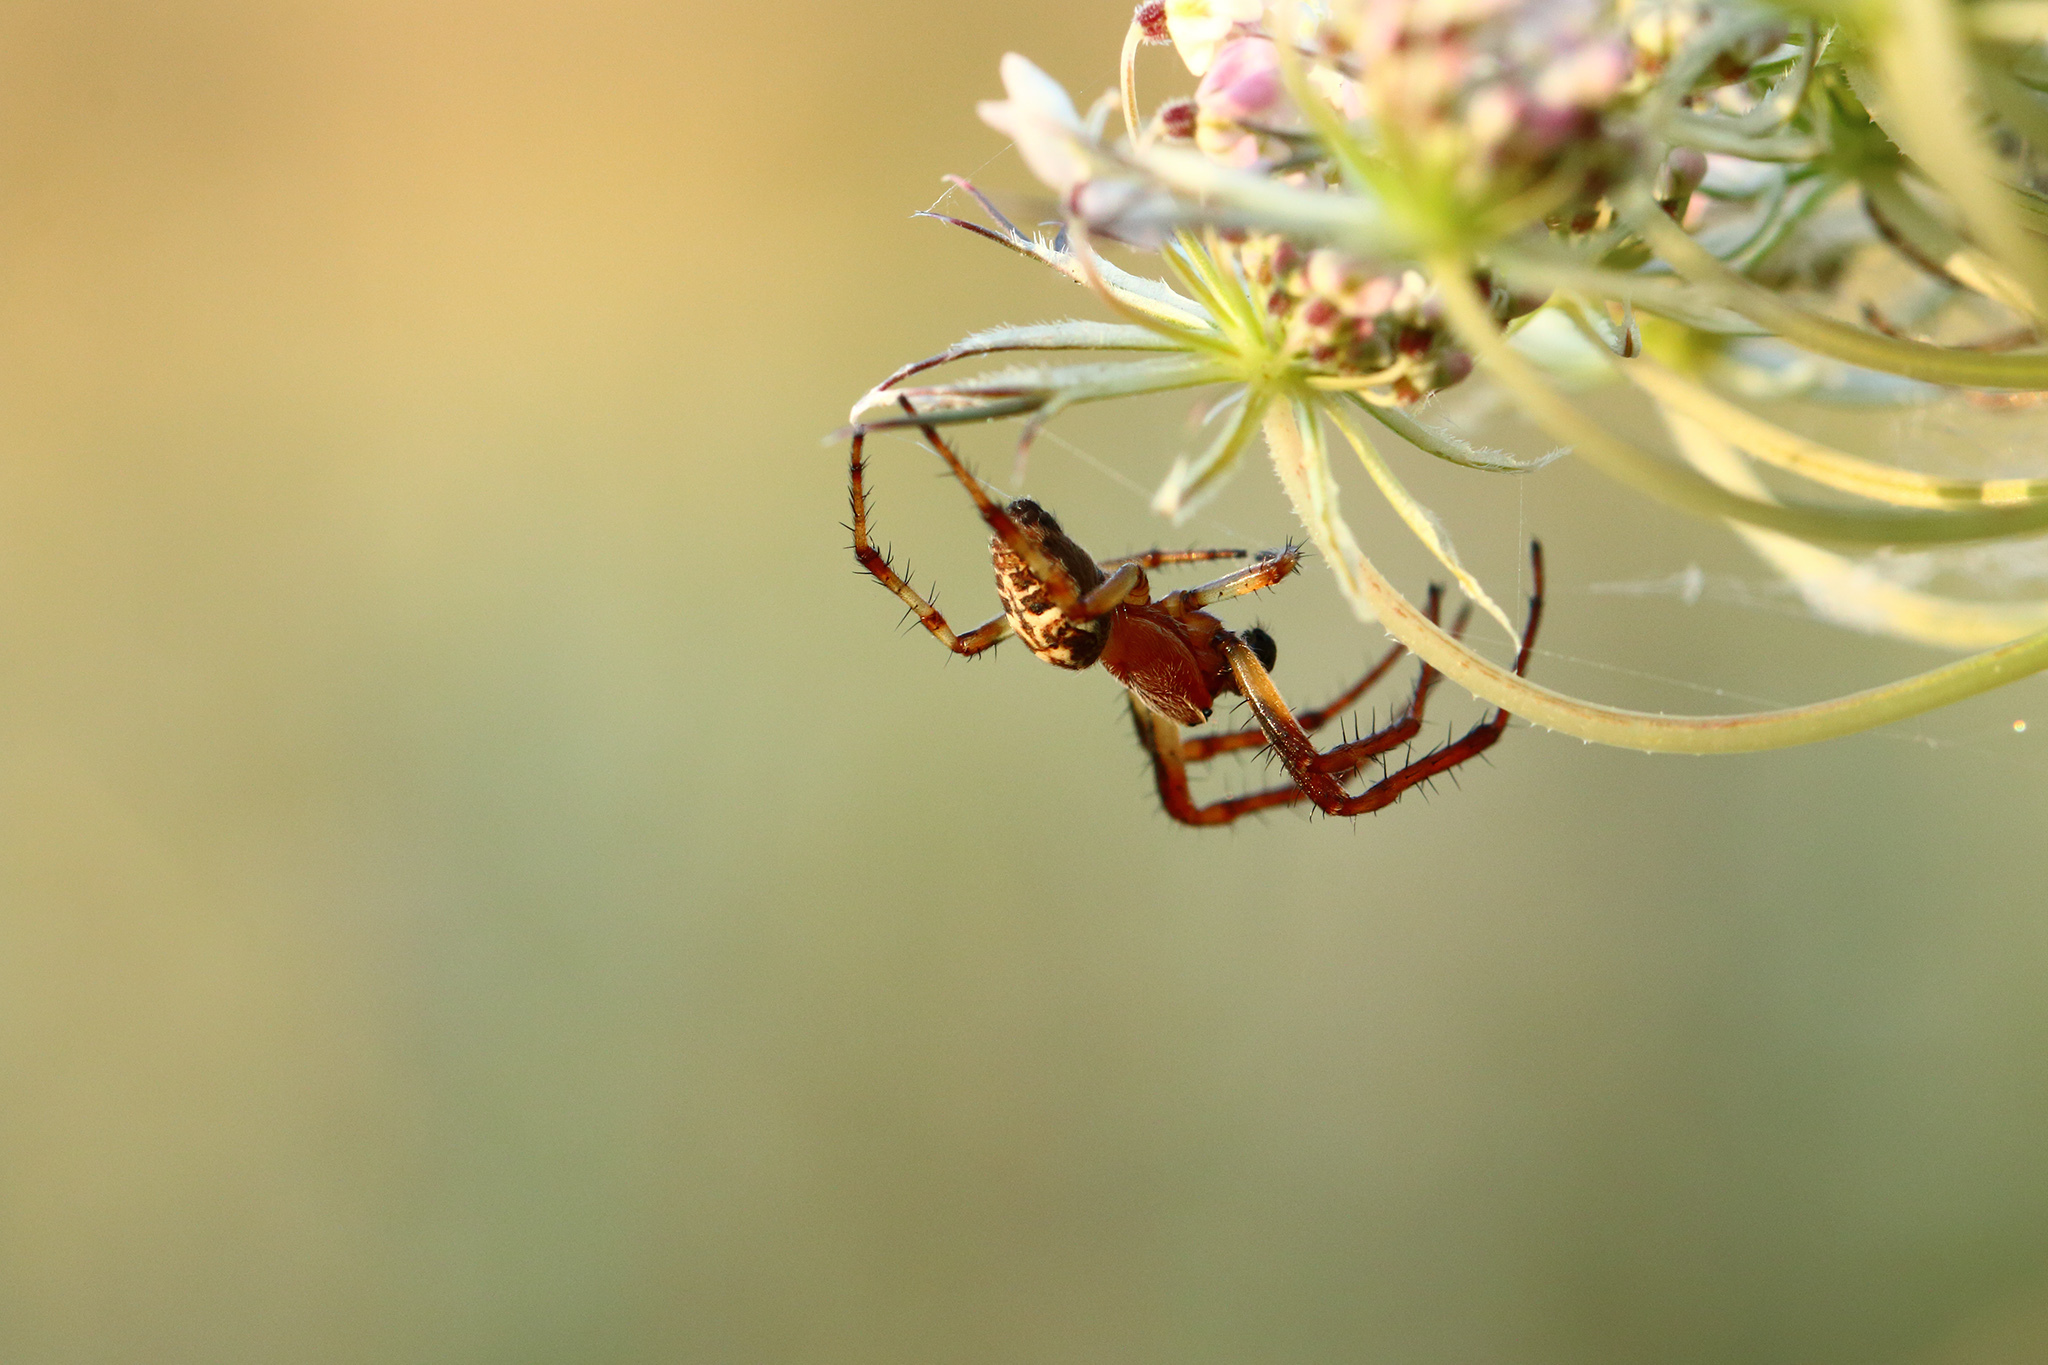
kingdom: Animalia
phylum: Arthropoda
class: Arachnida
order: Araneae
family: Araneidae
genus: Araneus
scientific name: Araneus diadematus
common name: Cross orbweaver
